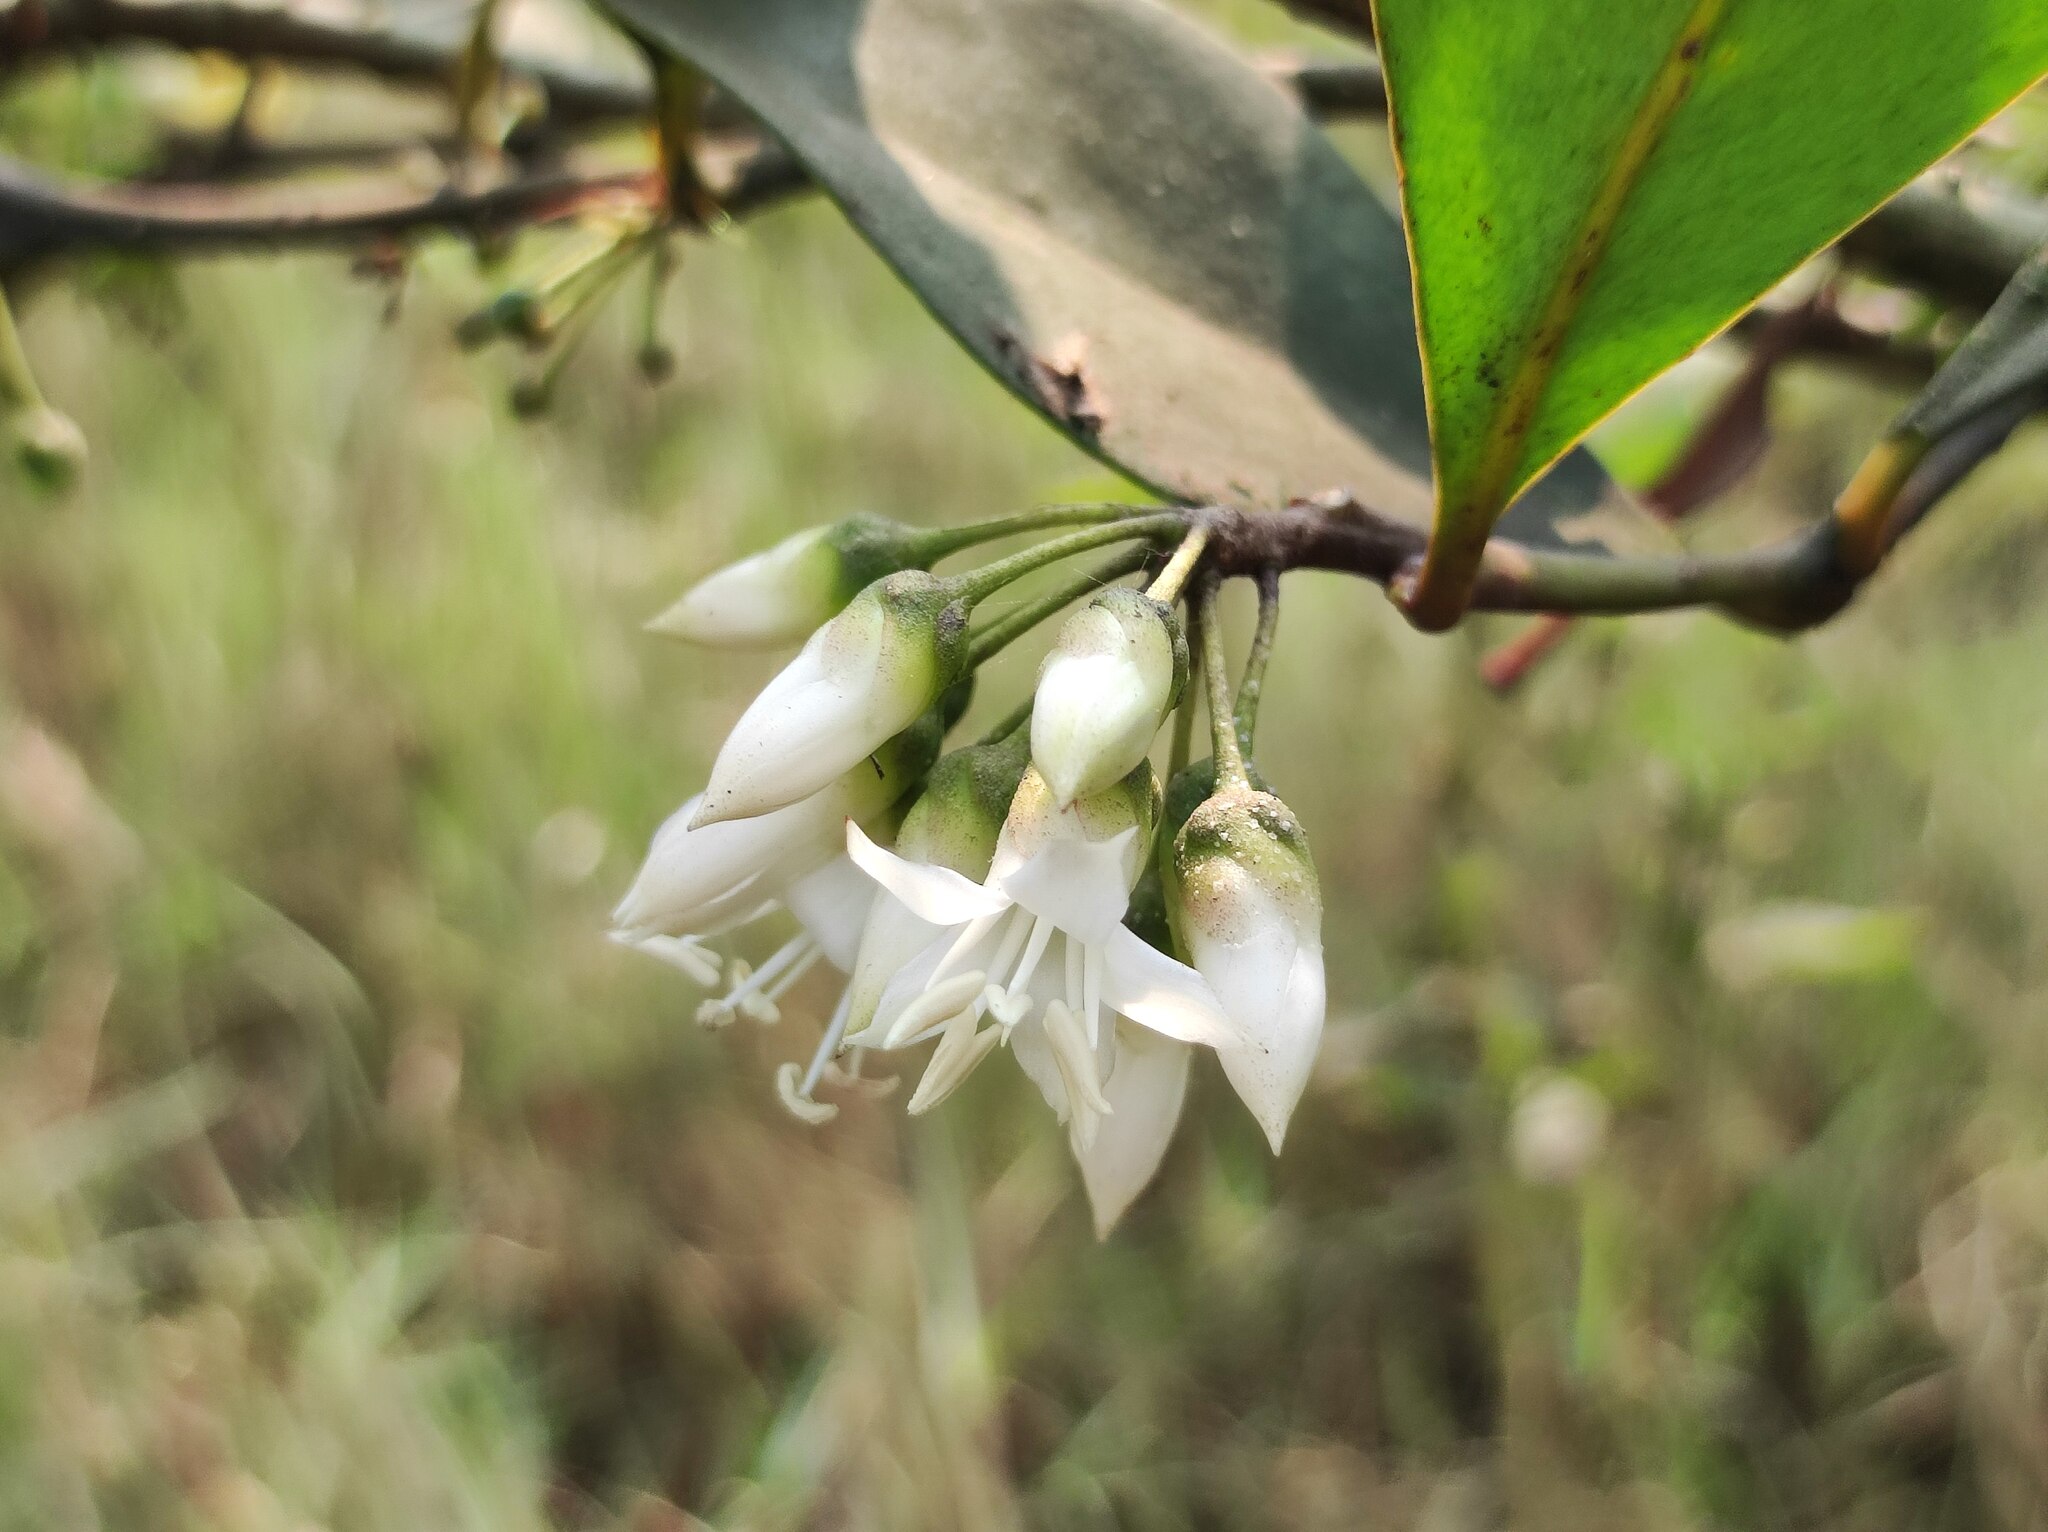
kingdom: Plantae
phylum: Tracheophyta
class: Magnoliopsida
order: Ericales
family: Primulaceae
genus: Aegiceras
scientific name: Aegiceras corniculatum
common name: River mangrove
